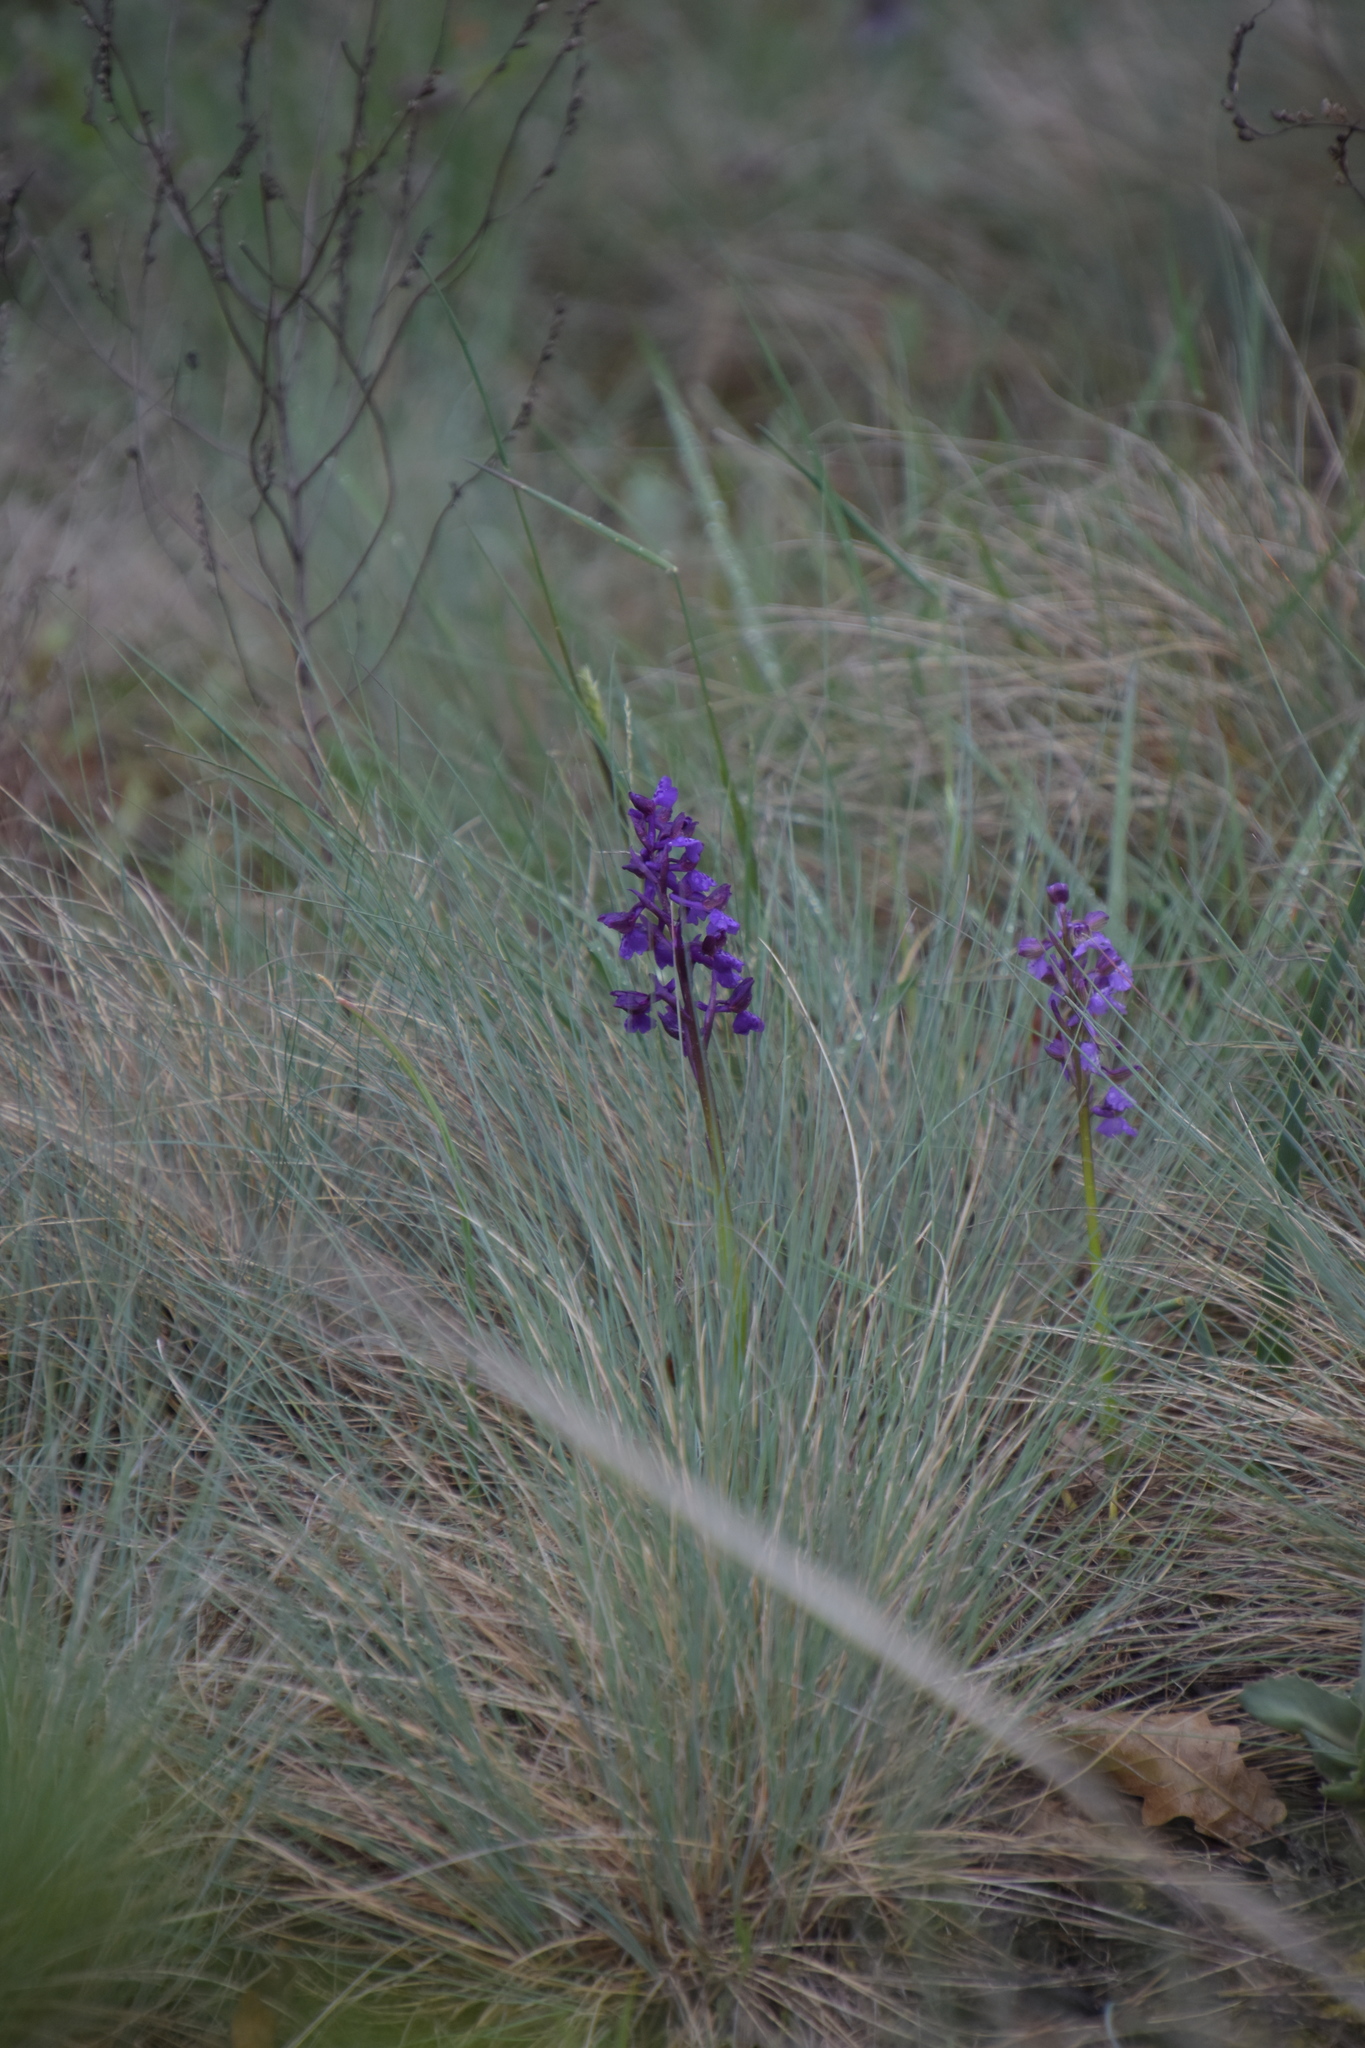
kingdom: Plantae
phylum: Tracheophyta
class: Liliopsida
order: Asparagales
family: Orchidaceae
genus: Anacamptis
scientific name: Anacamptis morio
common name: Green-winged orchid
